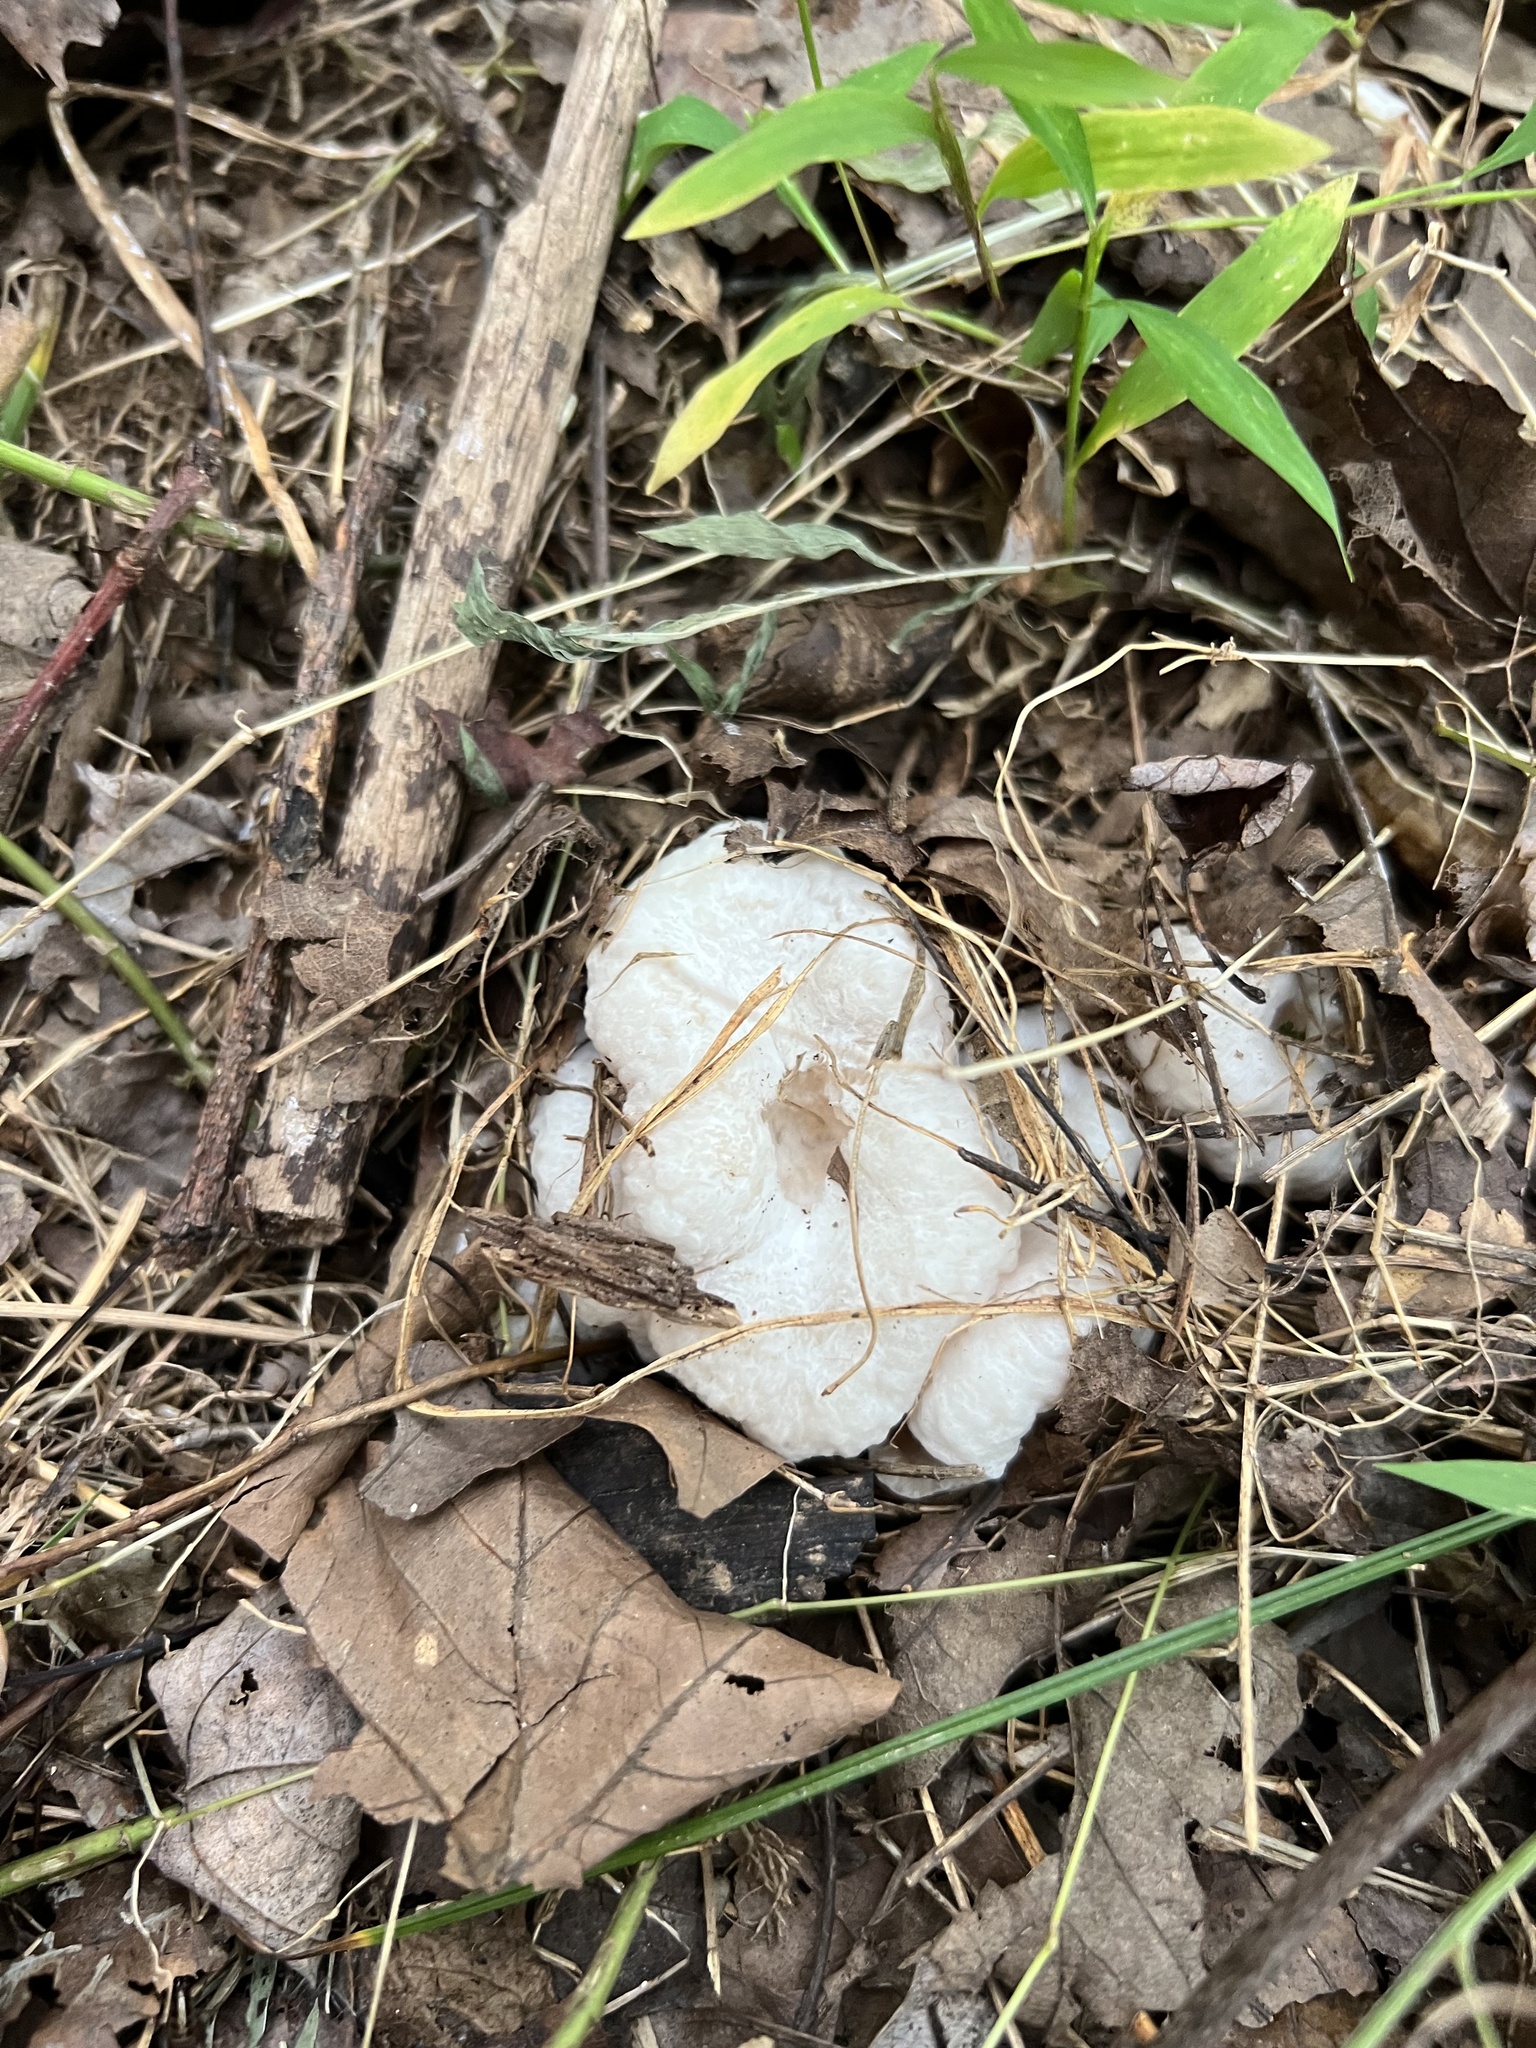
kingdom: Fungi
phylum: Basidiomycota
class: Agaricomycetes
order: Agaricales
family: Entolomataceae
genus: Entoloma
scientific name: Entoloma abortivum
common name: Aborted entoloma
